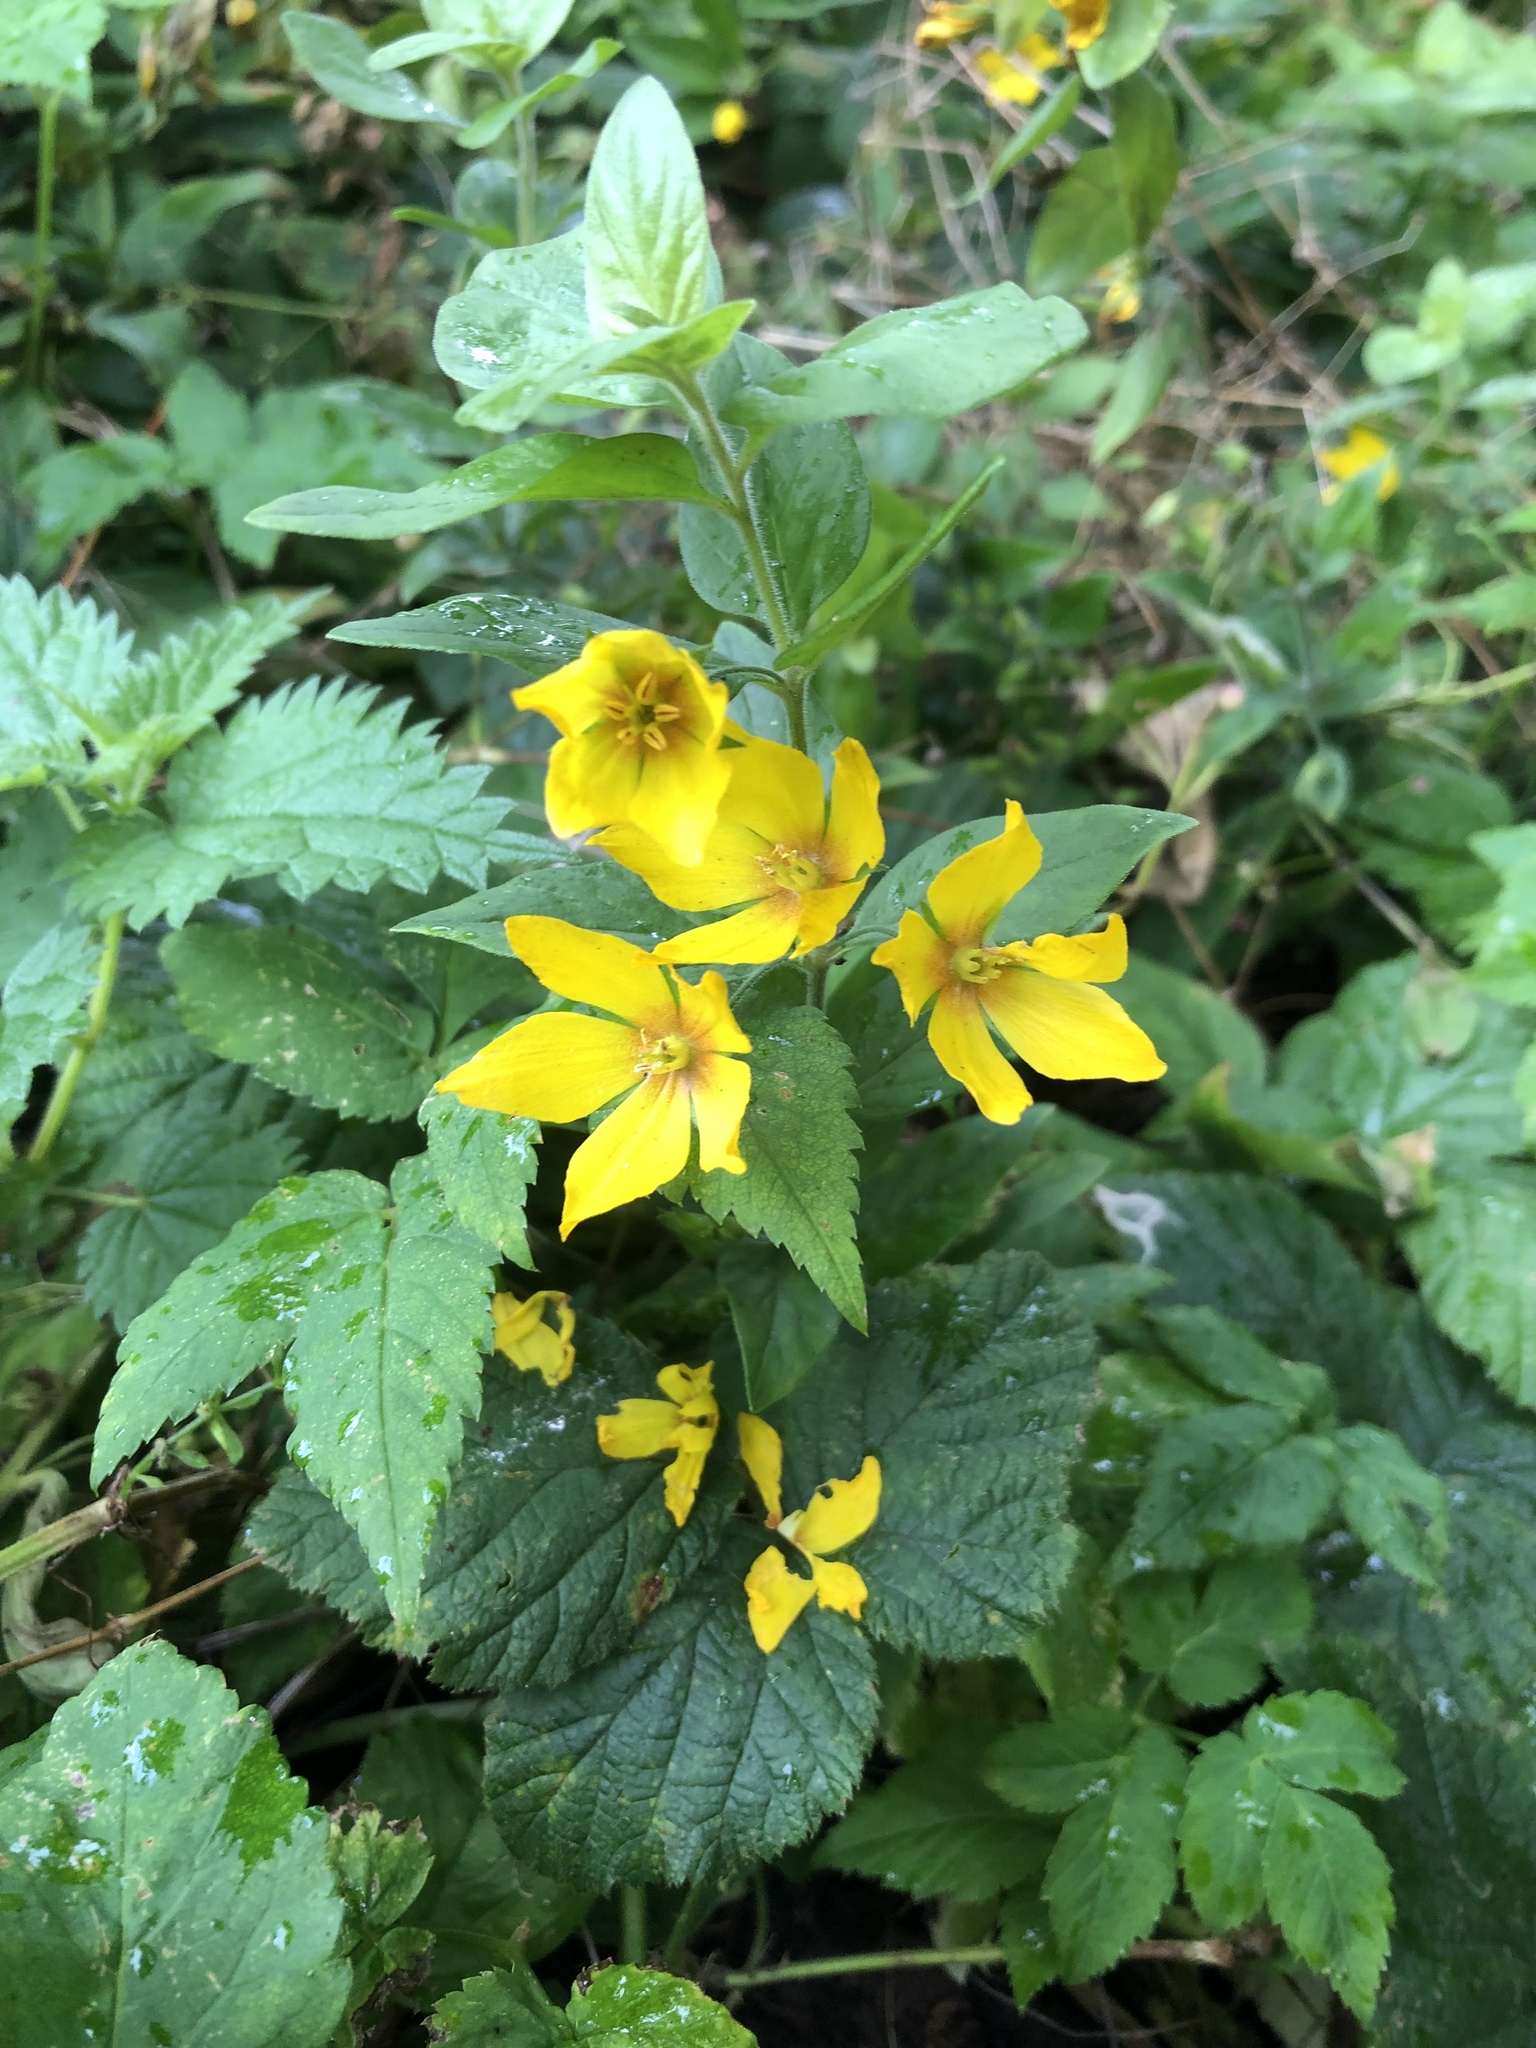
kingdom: Plantae
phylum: Tracheophyta
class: Magnoliopsida
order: Ericales
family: Primulaceae
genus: Lysimachia
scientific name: Lysimachia punctata
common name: Dotted loosestrife
